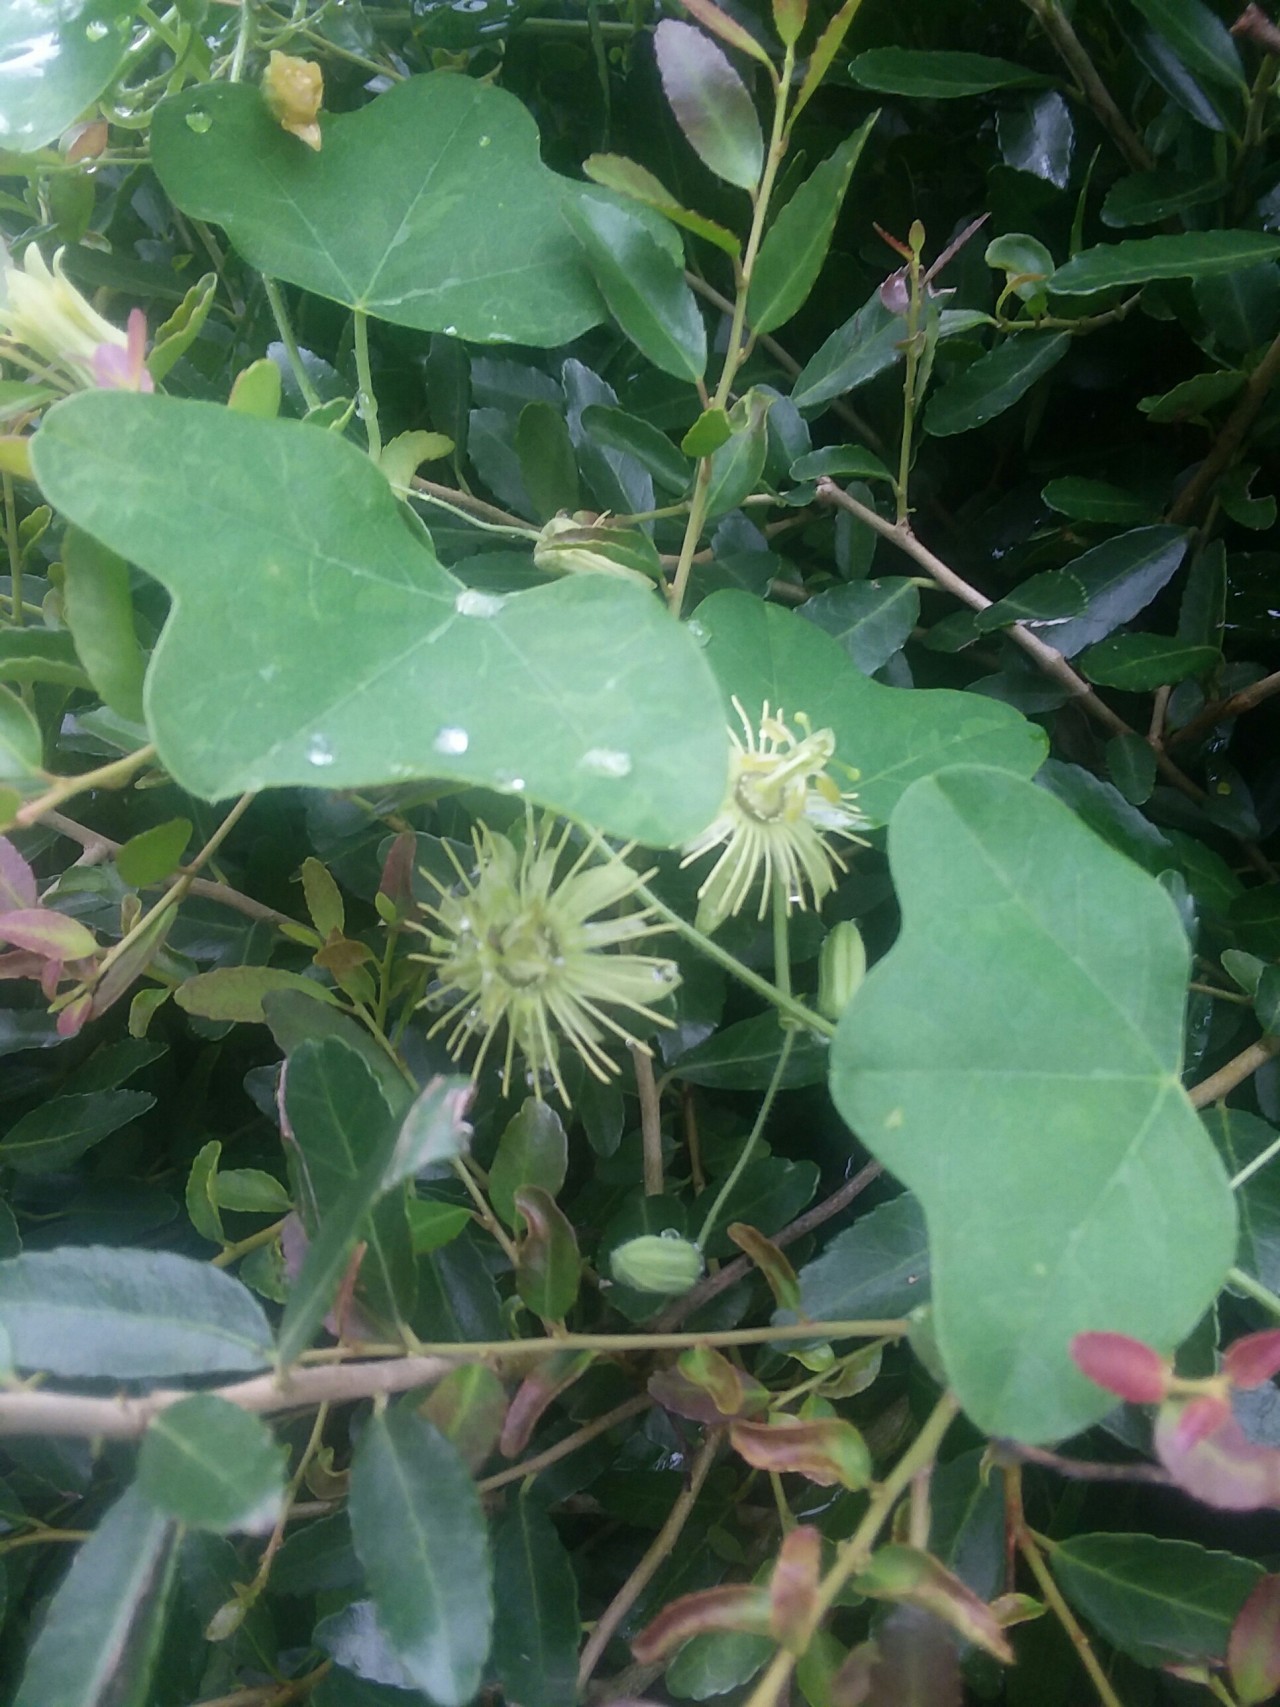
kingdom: Plantae
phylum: Tracheophyta
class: Magnoliopsida
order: Malpighiales
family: Passifloraceae
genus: Passiflora
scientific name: Passiflora lutea
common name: Yellow passionflower
